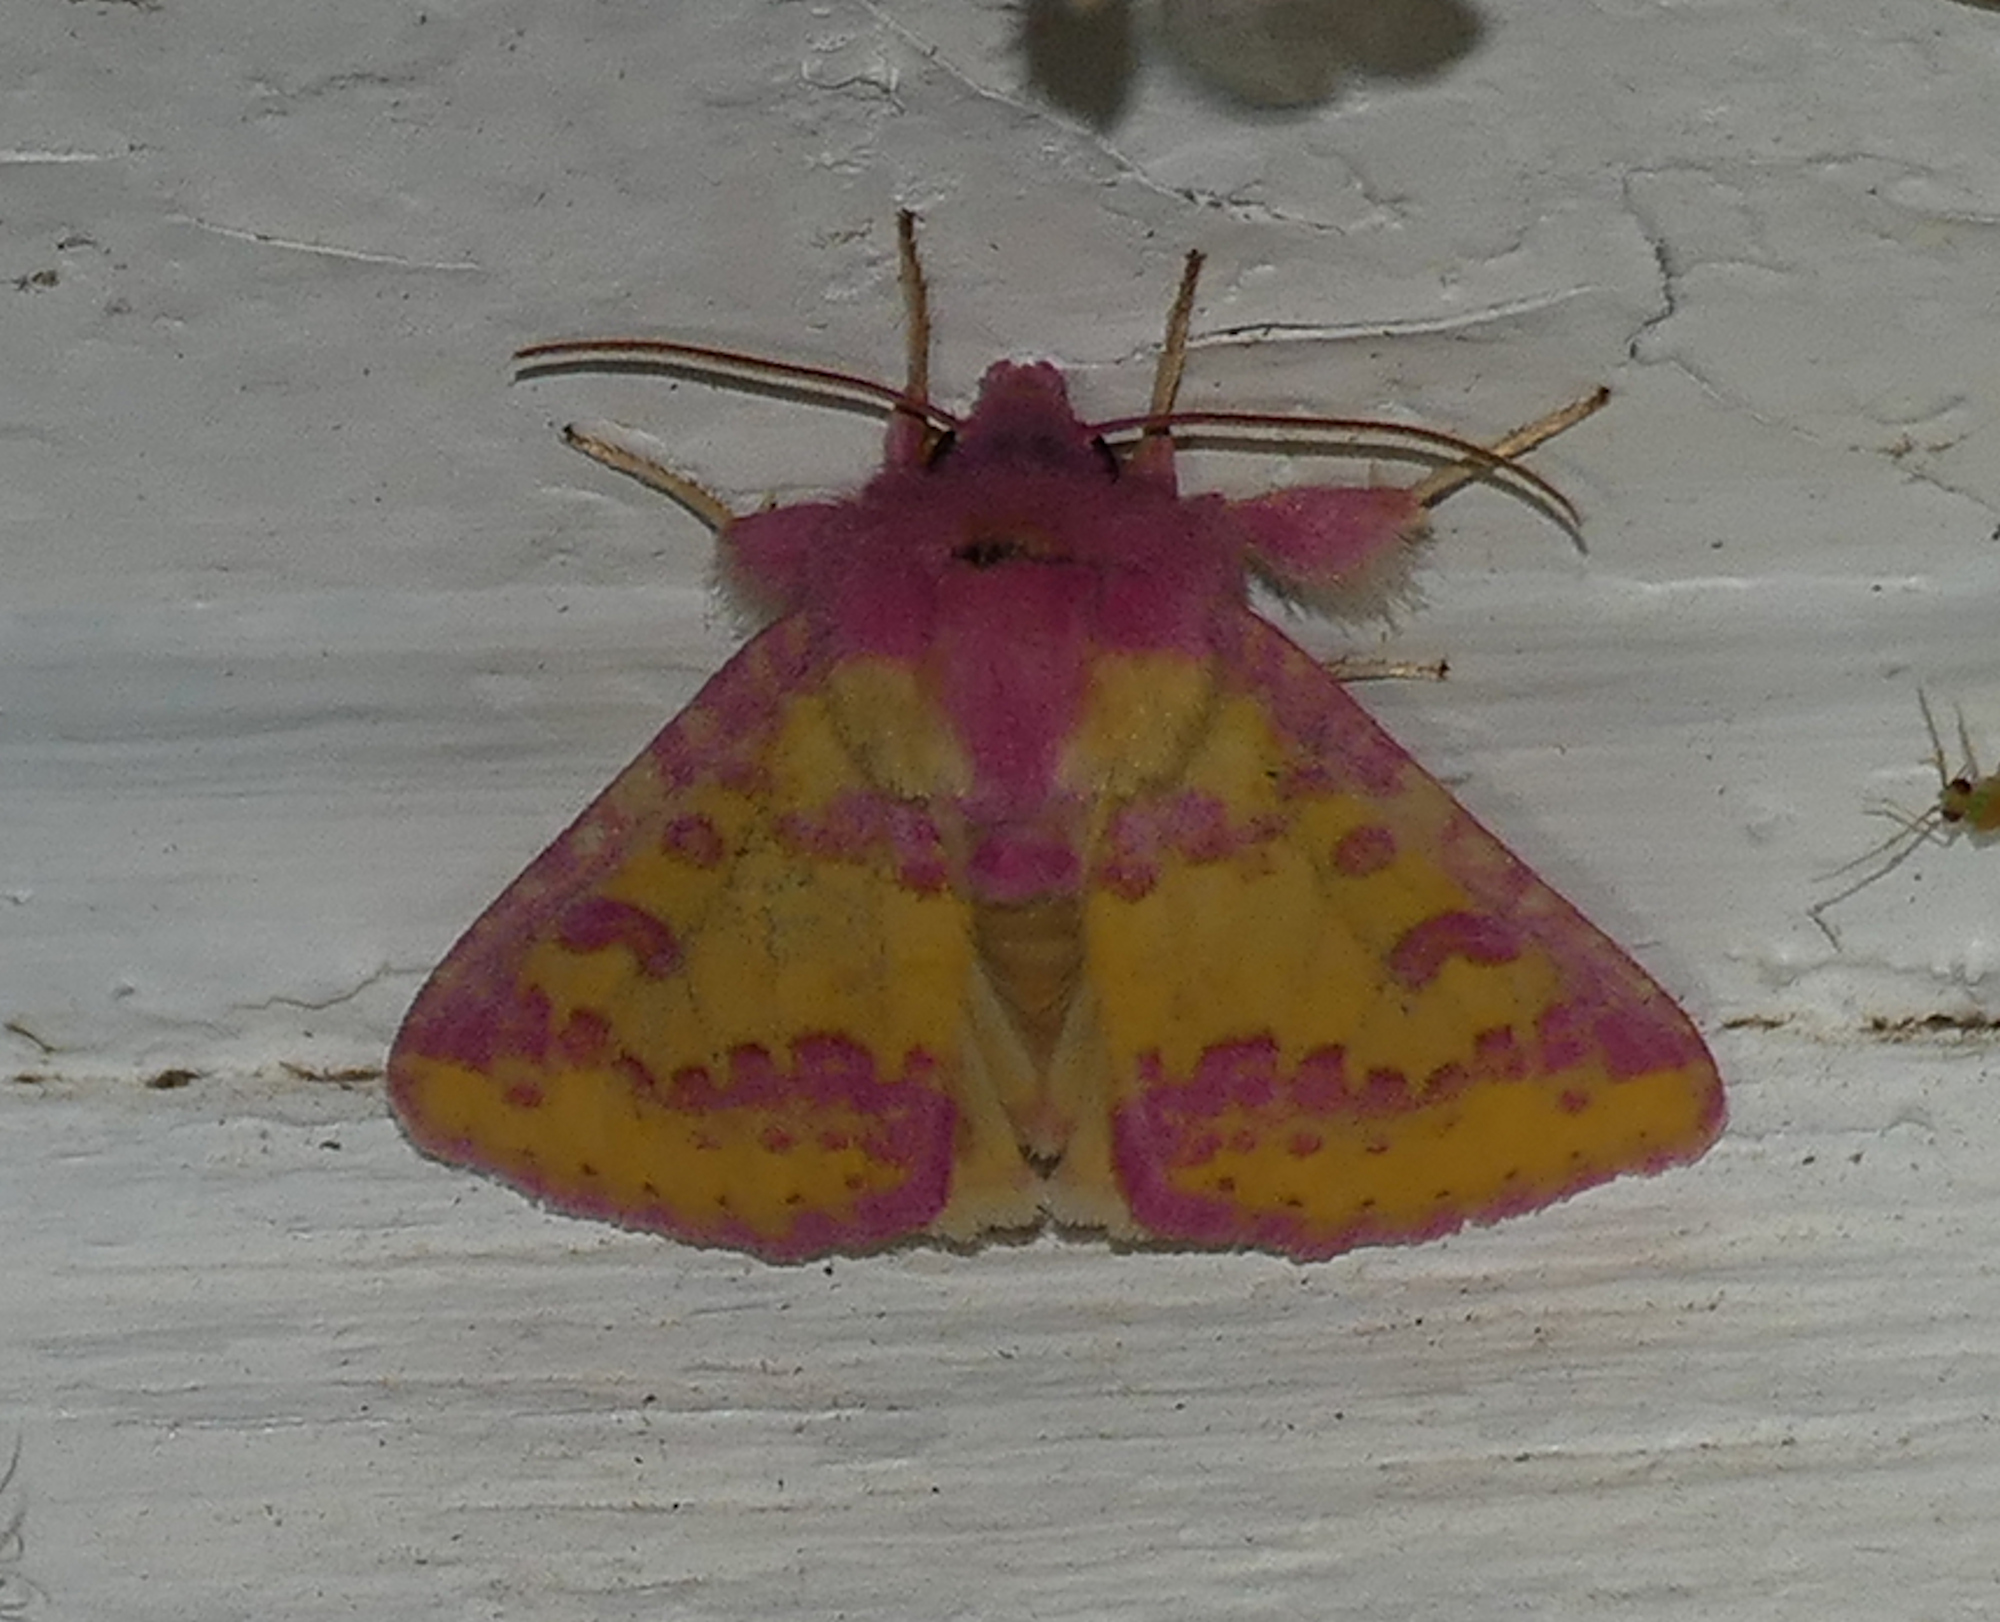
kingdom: Animalia
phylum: Arthropoda
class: Insecta
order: Lepidoptera
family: Noctuidae
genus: Psectrotarsia
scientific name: Psectrotarsia suavis
